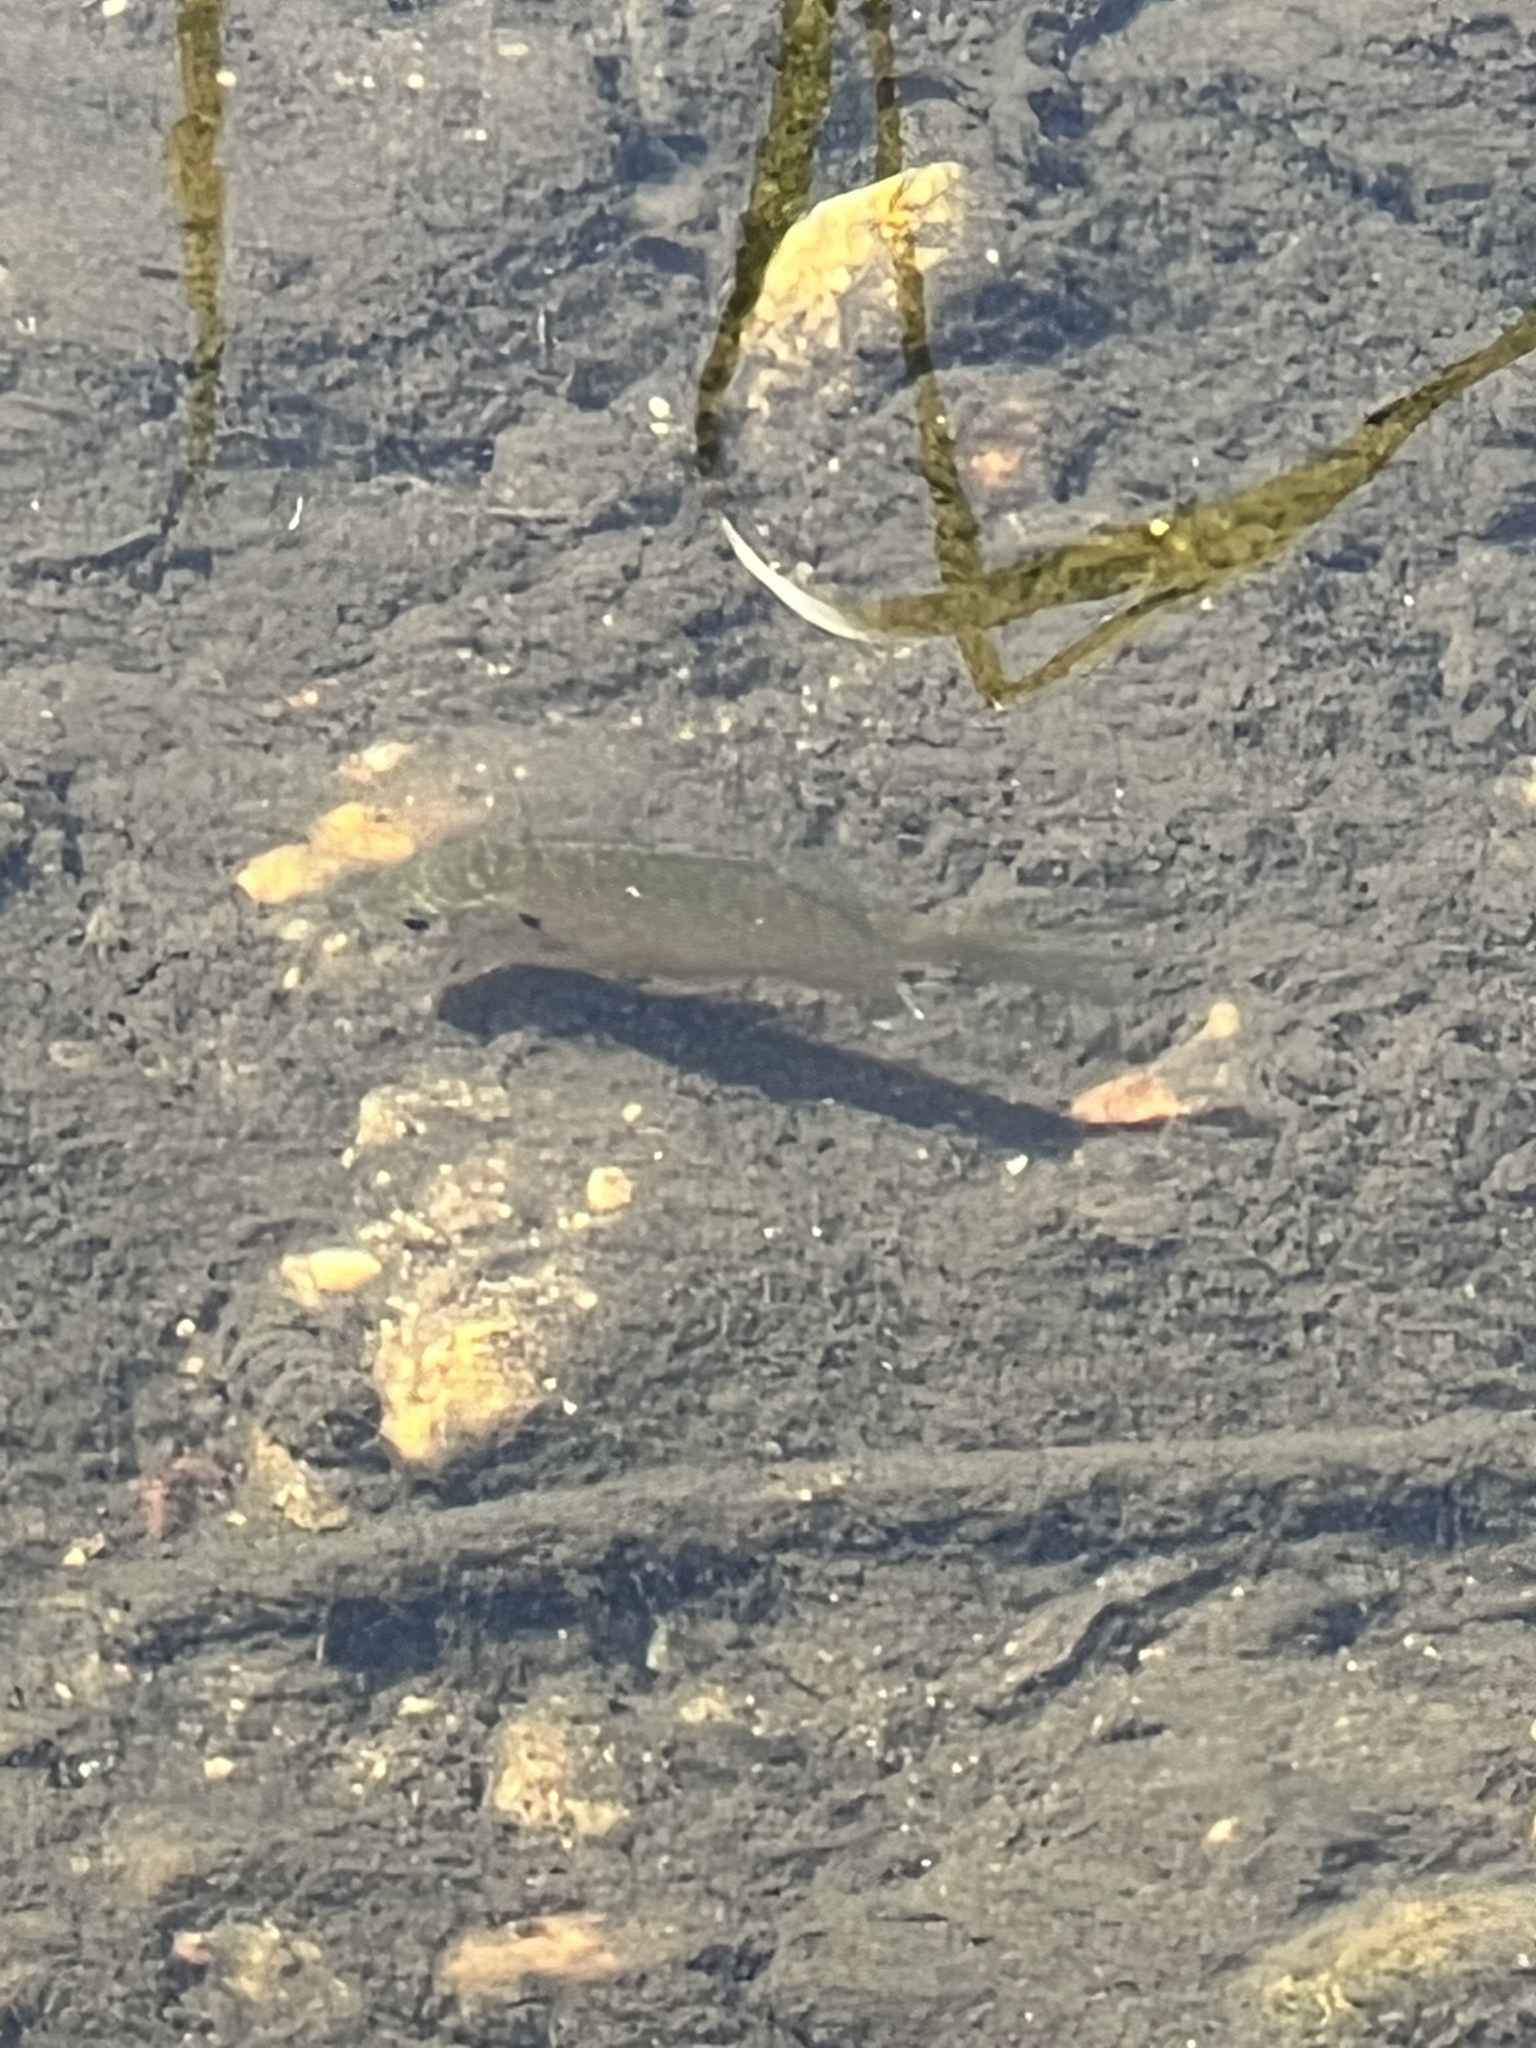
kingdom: Animalia
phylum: Chordata
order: Perciformes
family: Centrarchidae
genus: Lepomis
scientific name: Lepomis gibbosus
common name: Pumpkinseed
